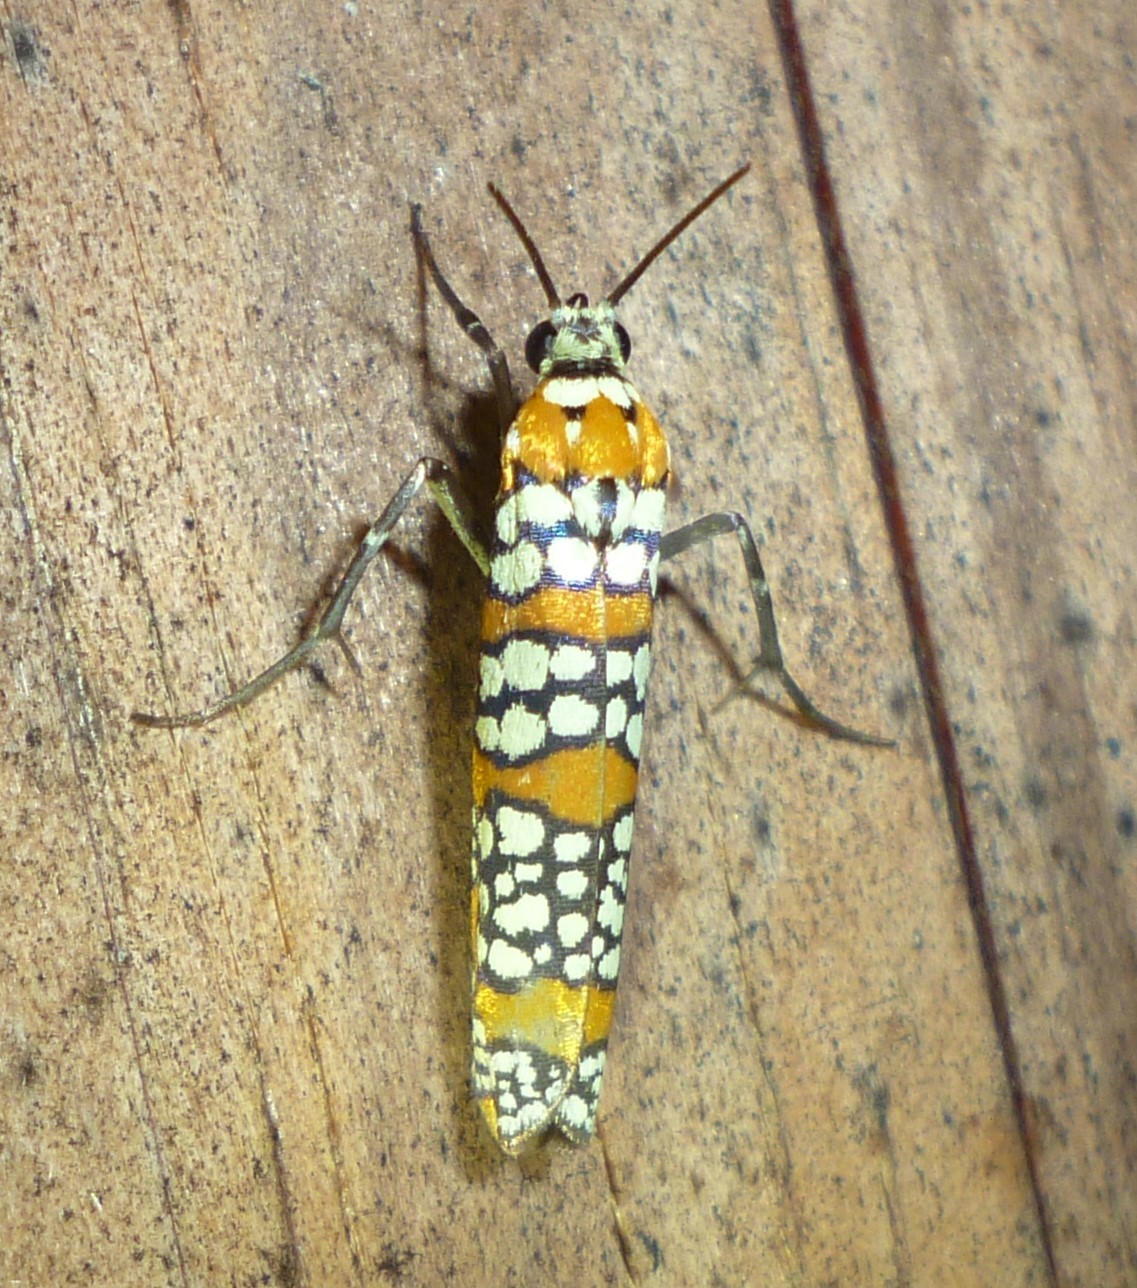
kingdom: Animalia
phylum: Arthropoda
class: Insecta
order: Lepidoptera
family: Attevidae
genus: Atteva
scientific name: Atteva punctella
